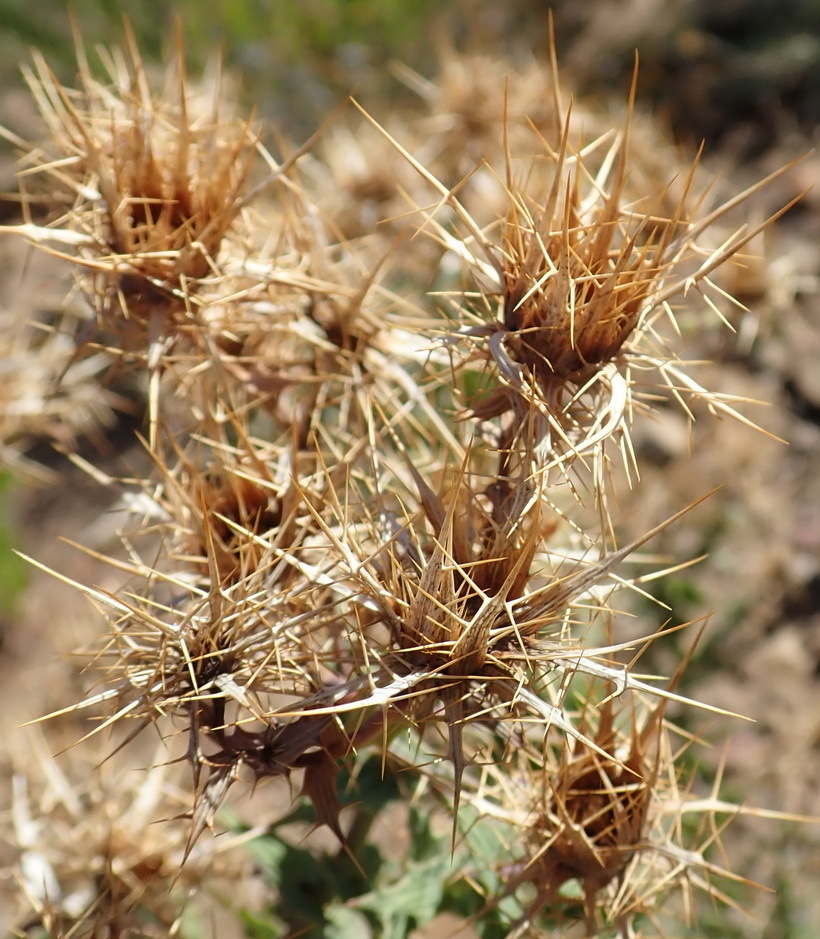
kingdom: Plantae
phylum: Tracheophyta
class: Magnoliopsida
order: Asterales
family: Asteraceae
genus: Berkheya
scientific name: Berkheya cruciata
